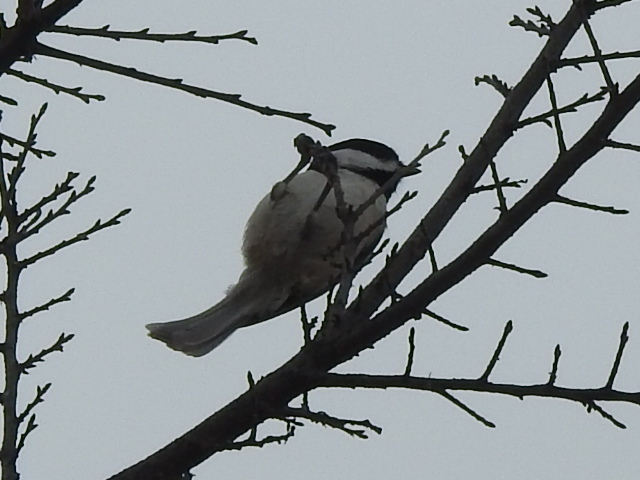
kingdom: Animalia
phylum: Chordata
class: Aves
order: Passeriformes
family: Paridae
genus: Poecile
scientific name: Poecile carolinensis
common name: Carolina chickadee
